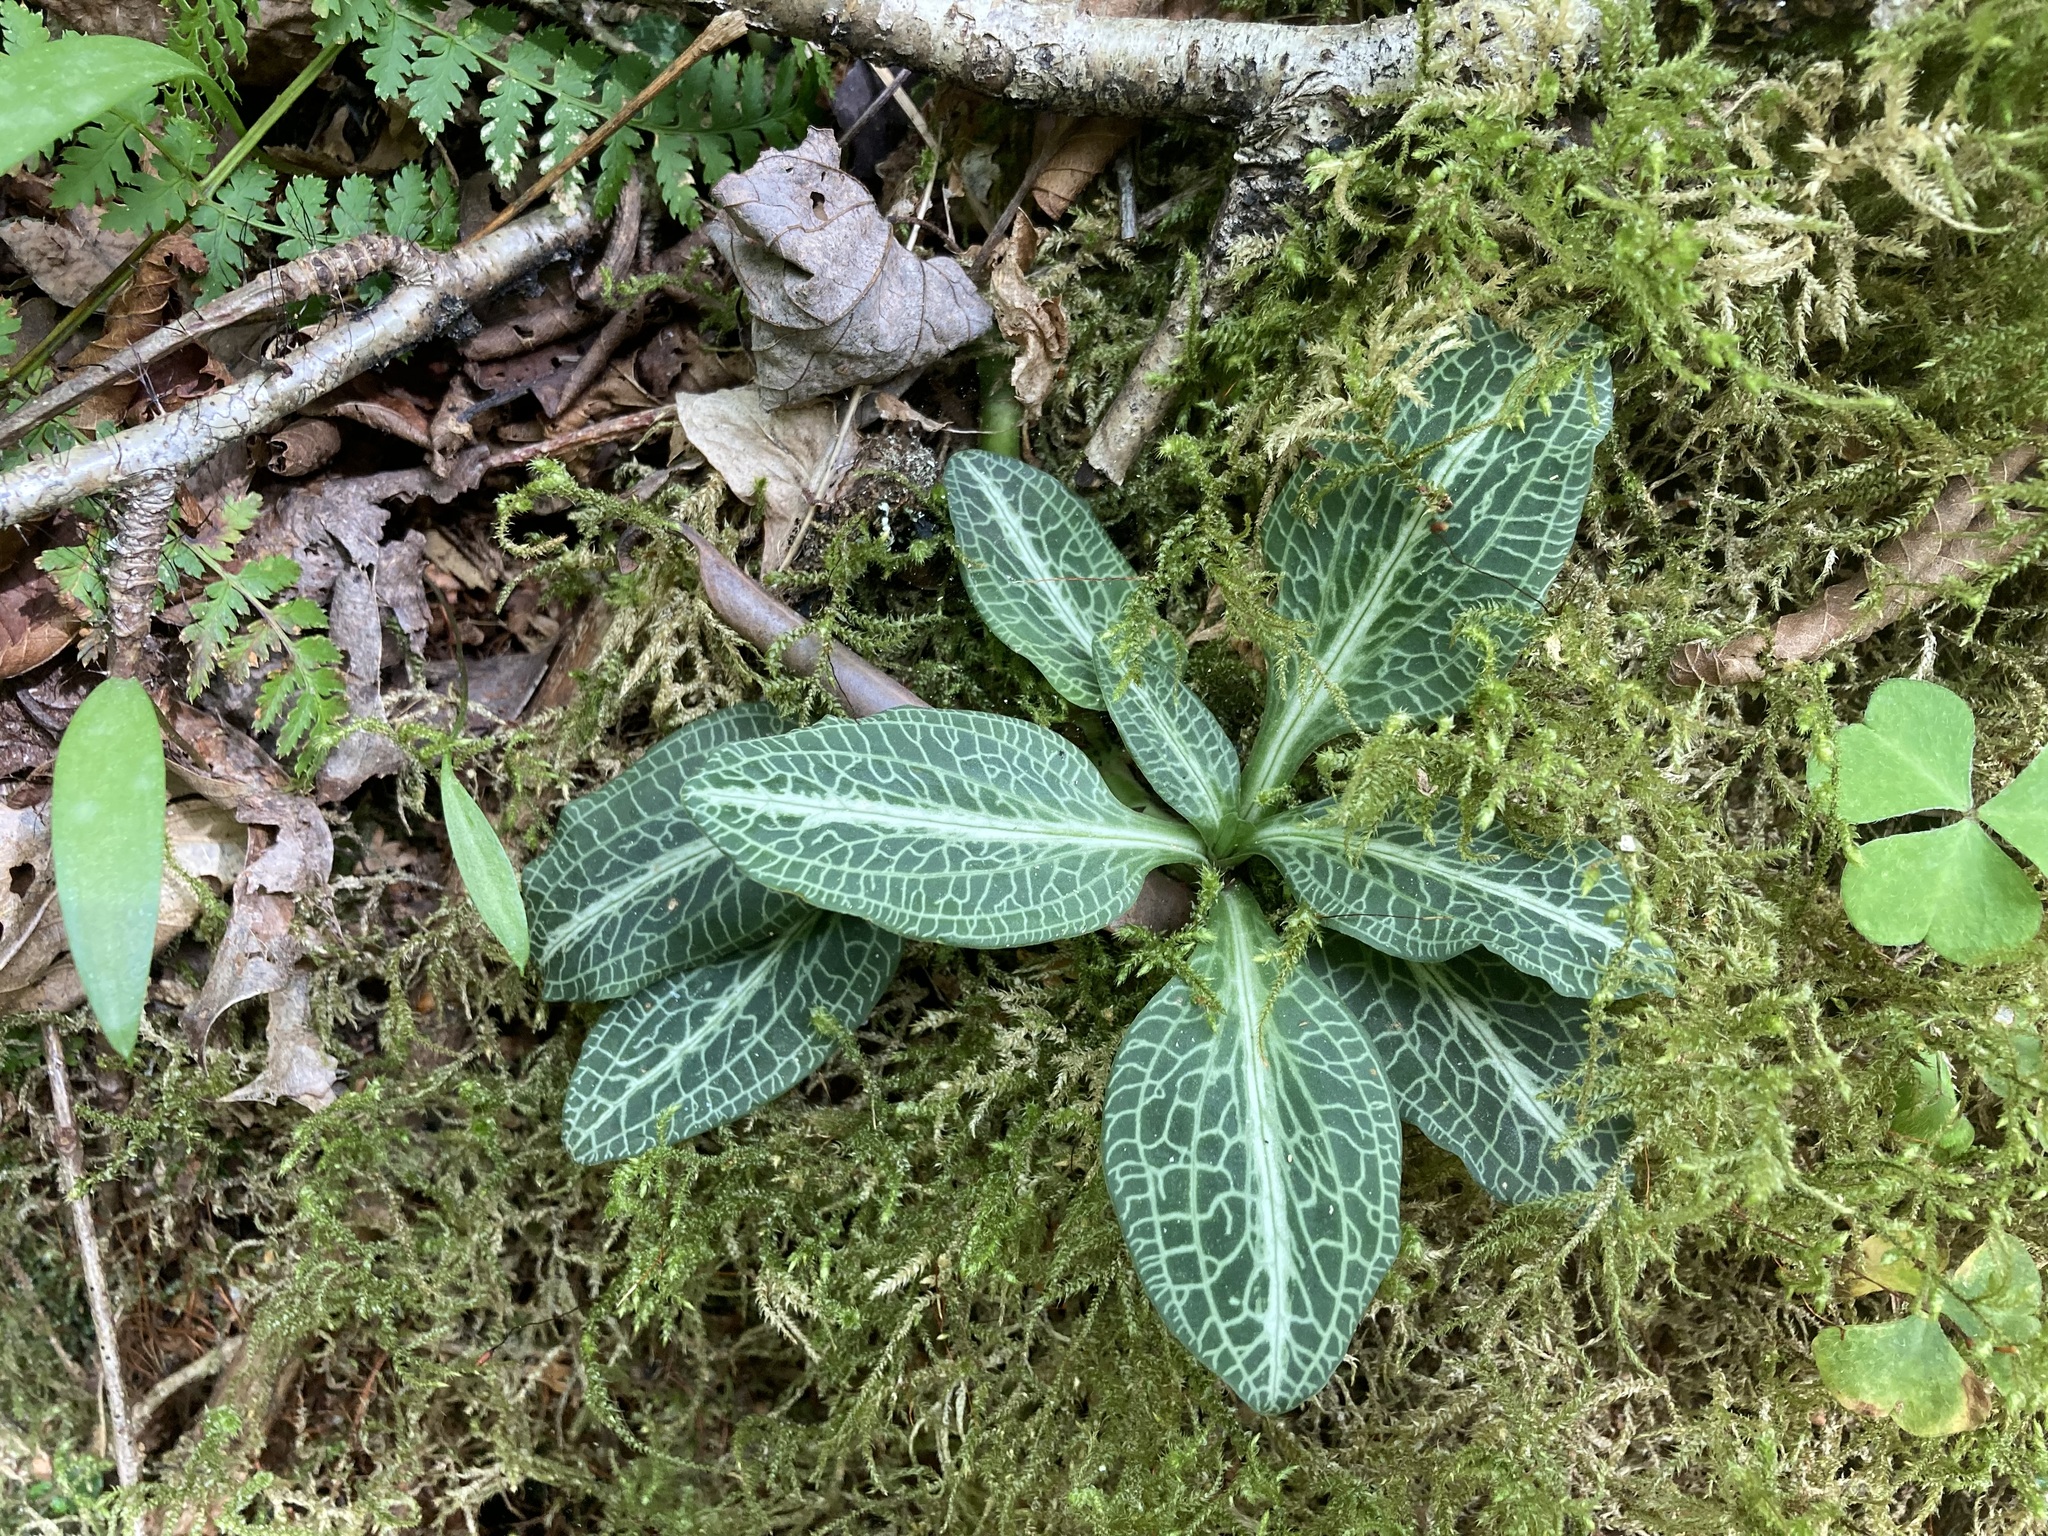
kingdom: Plantae
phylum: Tracheophyta
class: Liliopsida
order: Asparagales
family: Orchidaceae
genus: Goodyera
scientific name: Goodyera pubescens
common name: Downy rattlesnake-plantain
